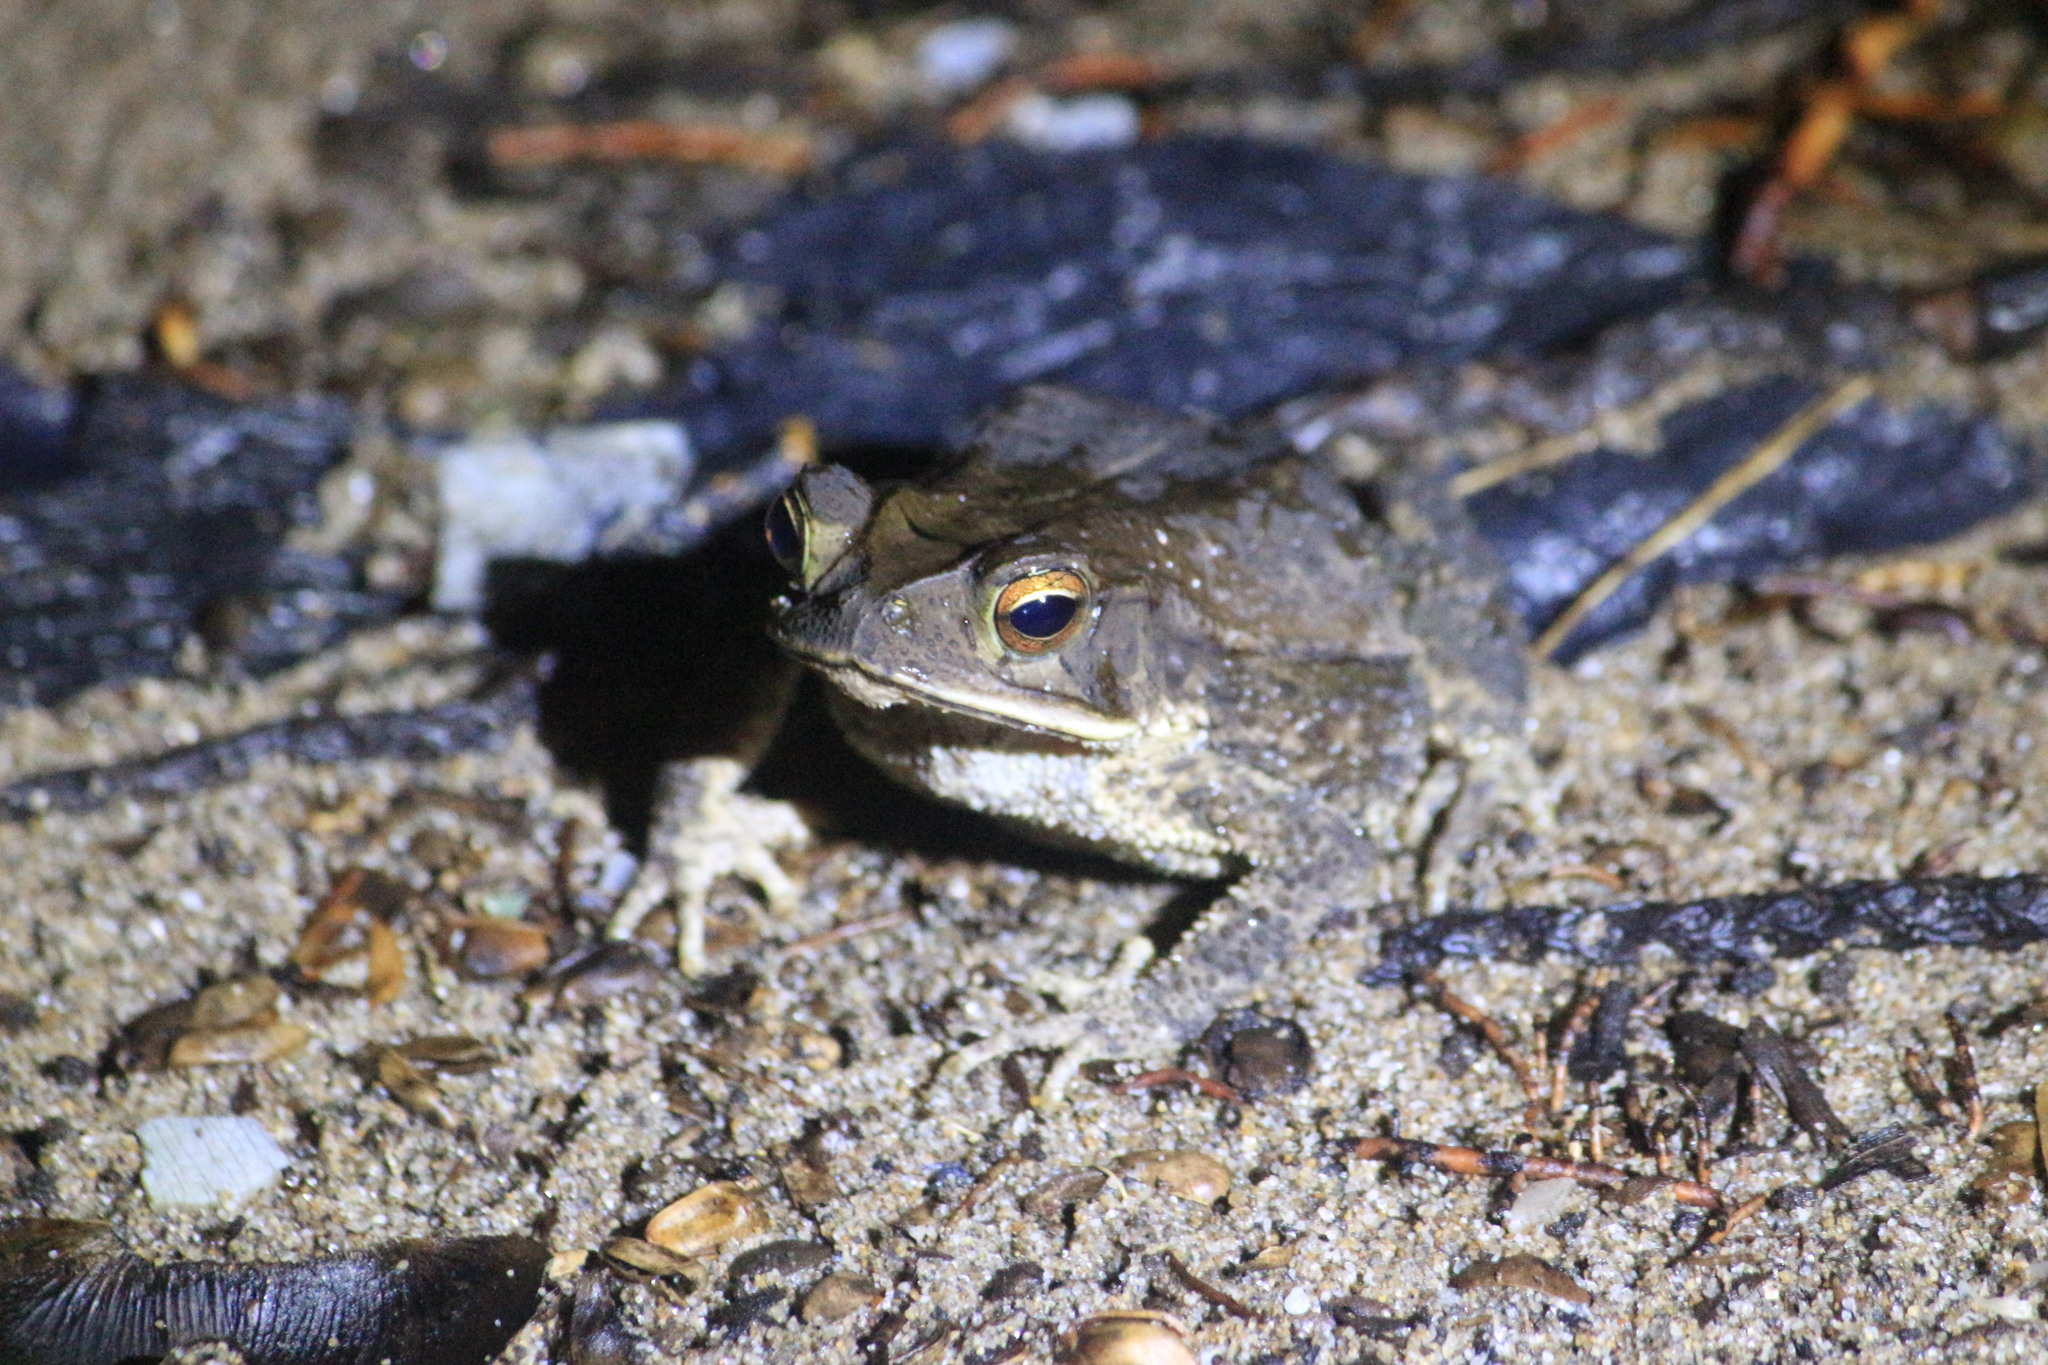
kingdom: Animalia
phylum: Chordata
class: Amphibia
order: Anura
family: Bufonidae
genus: Incilius
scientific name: Incilius valliceps
